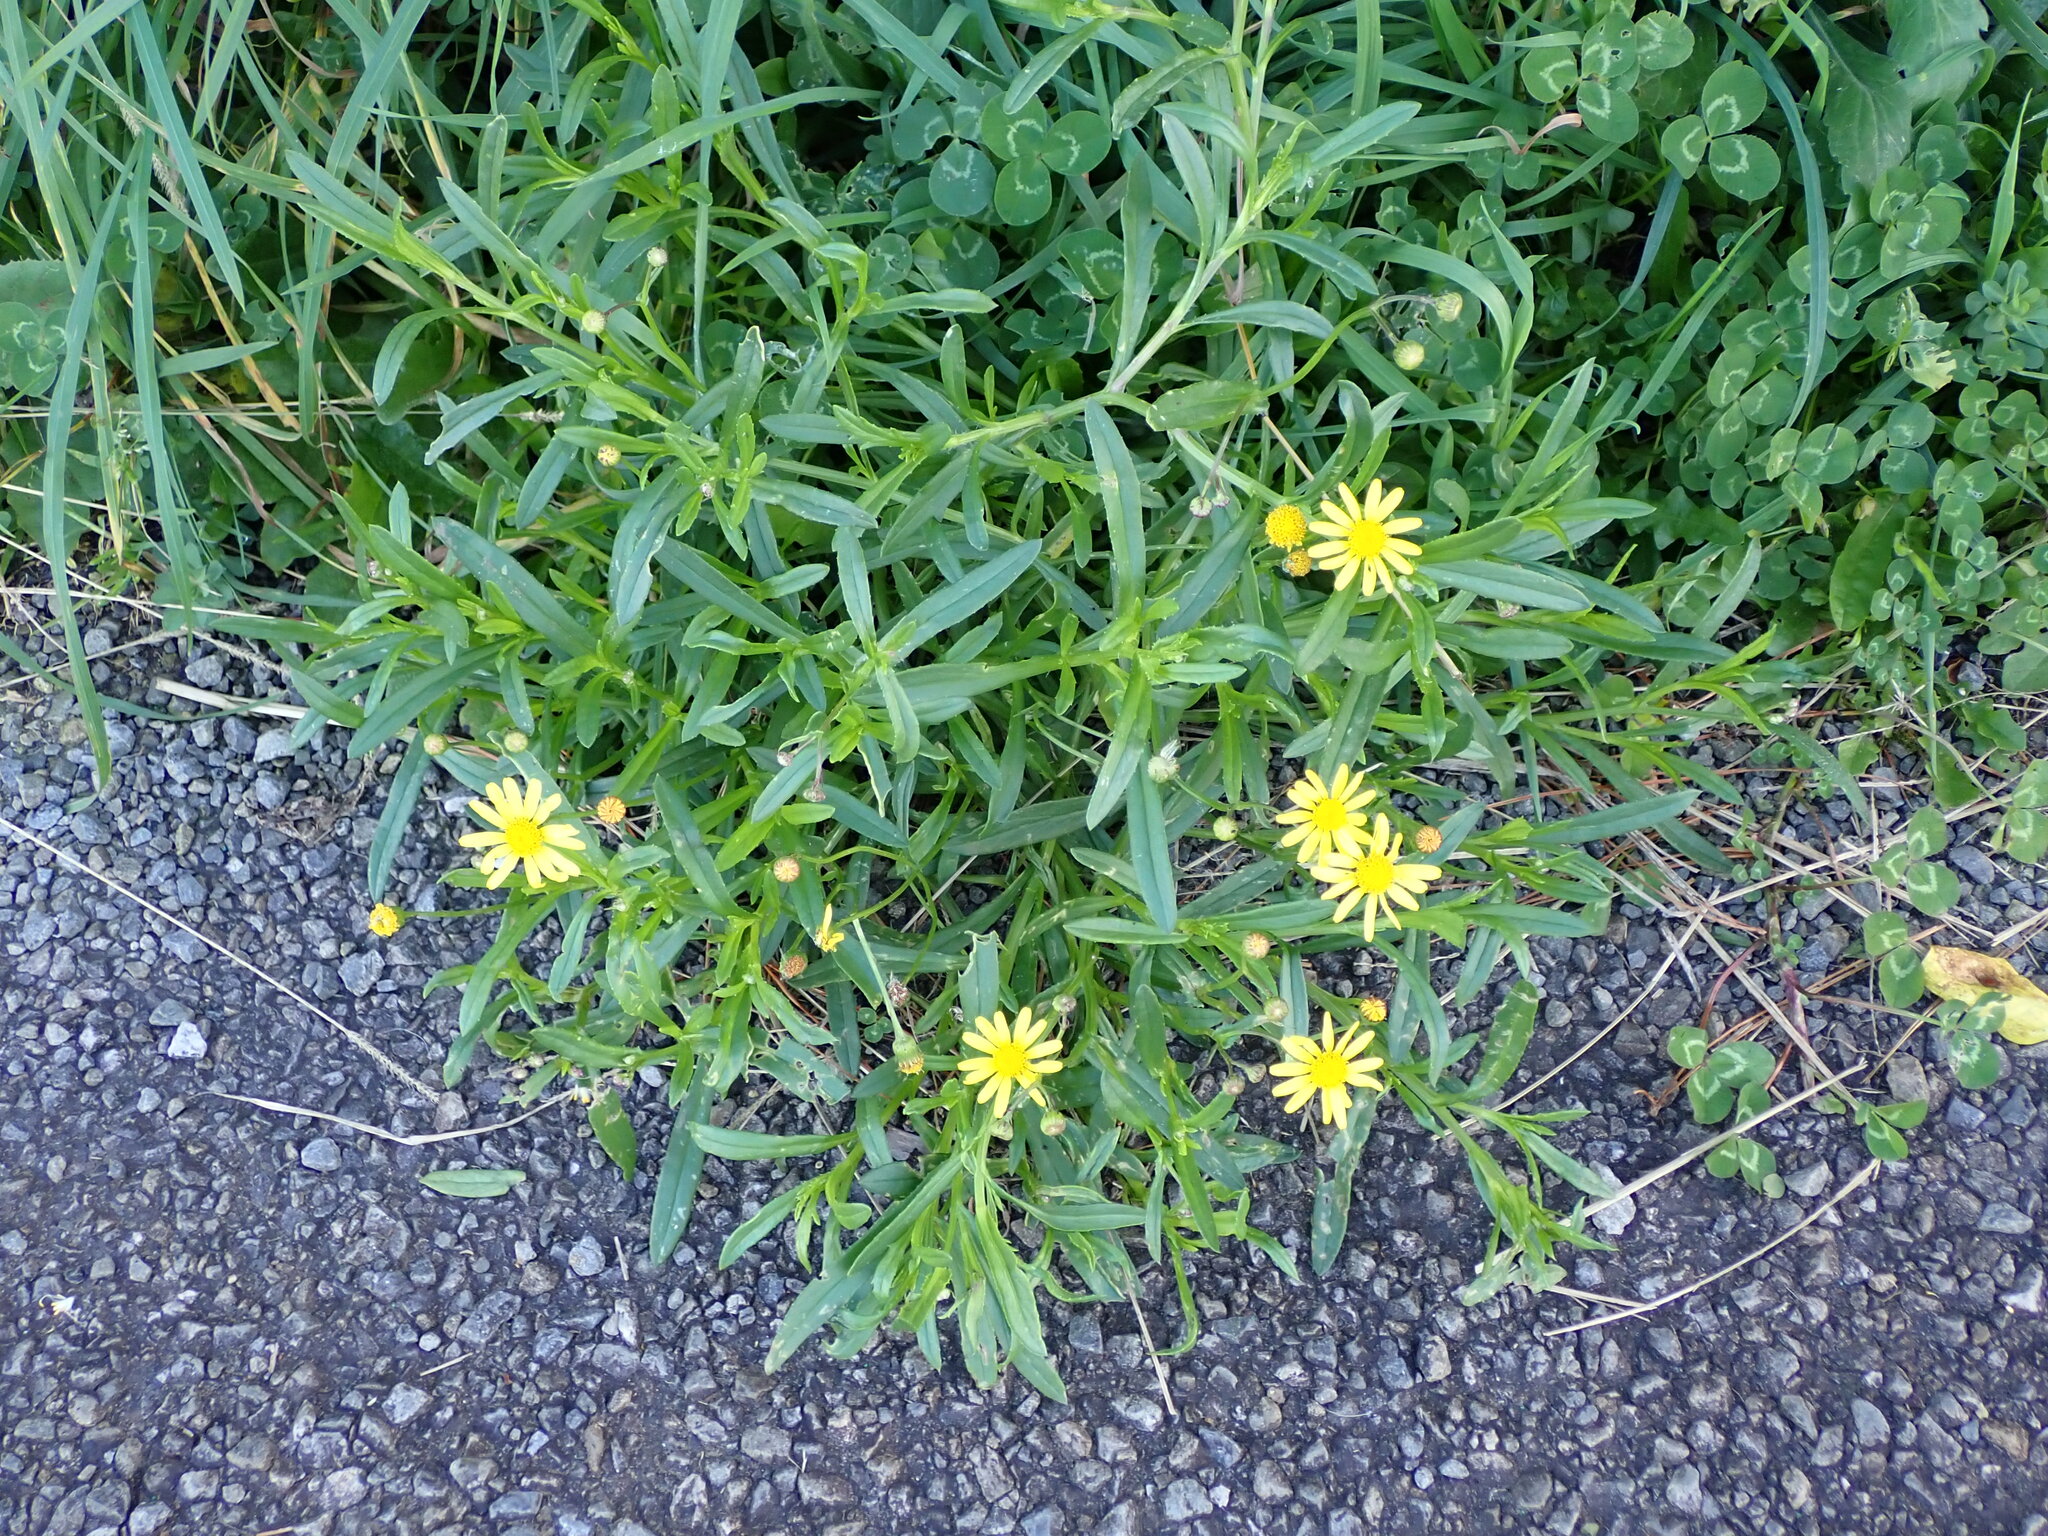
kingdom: Plantae
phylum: Tracheophyta
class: Magnoliopsida
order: Asterales
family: Asteraceae
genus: Senecio
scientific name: Senecio skirrhodon
